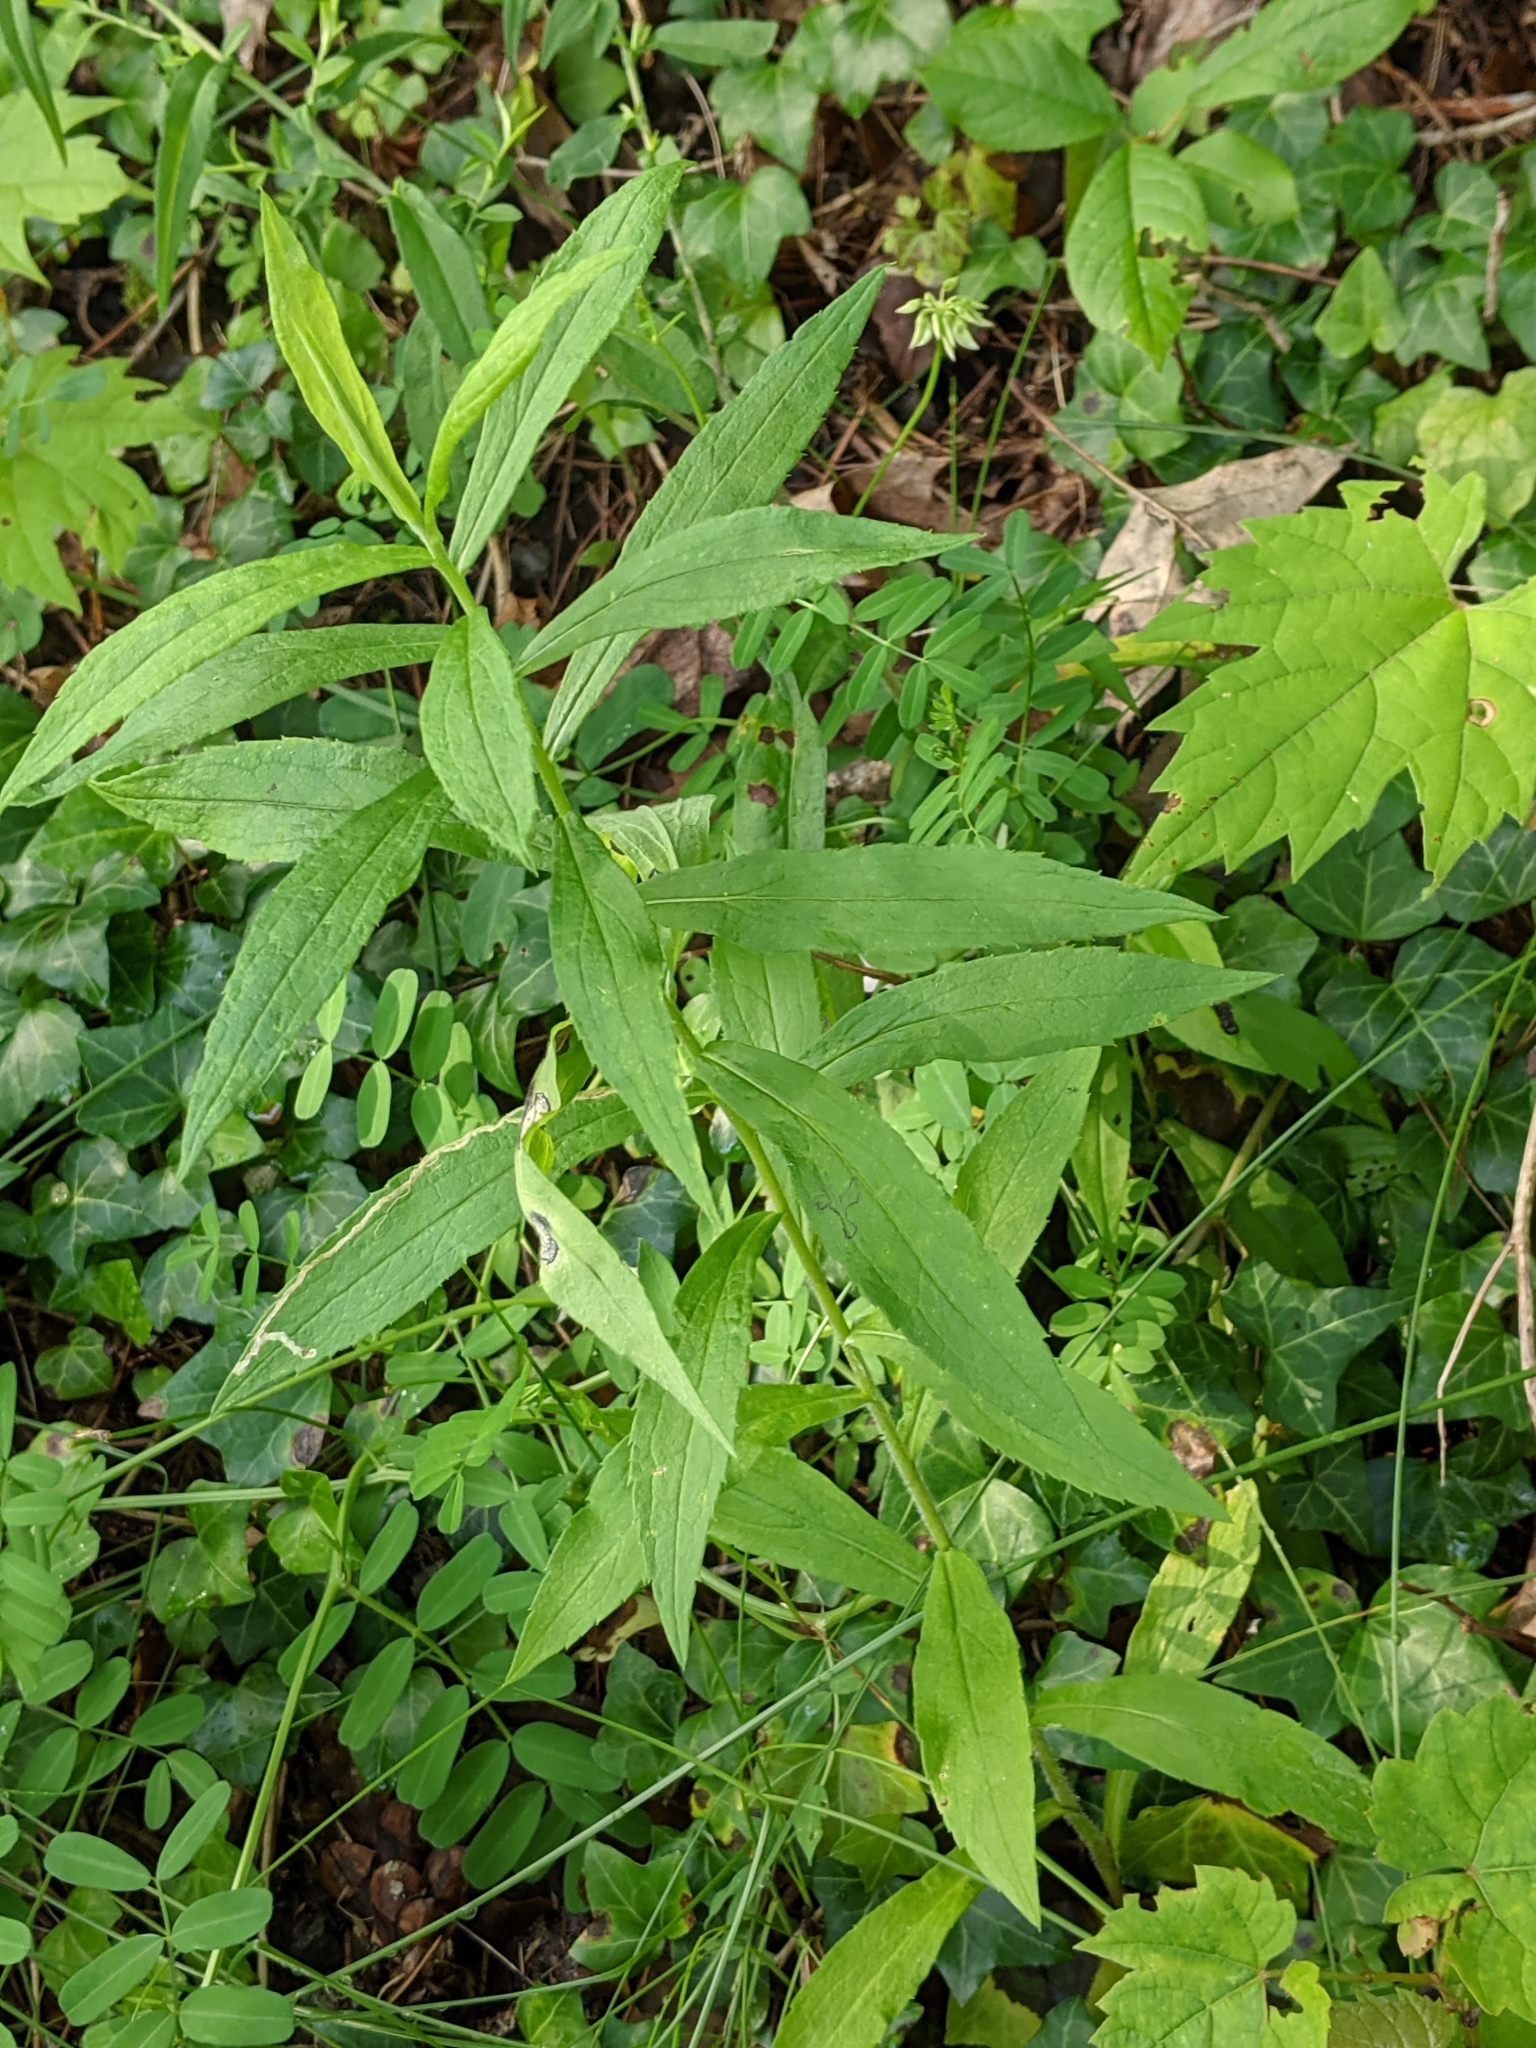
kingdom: Animalia
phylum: Arthropoda
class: Insecta
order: Diptera
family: Cecidomyiidae
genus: Asteromyia
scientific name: Asteromyia carbonifera
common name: Carbonifera goldenrod gall midge
